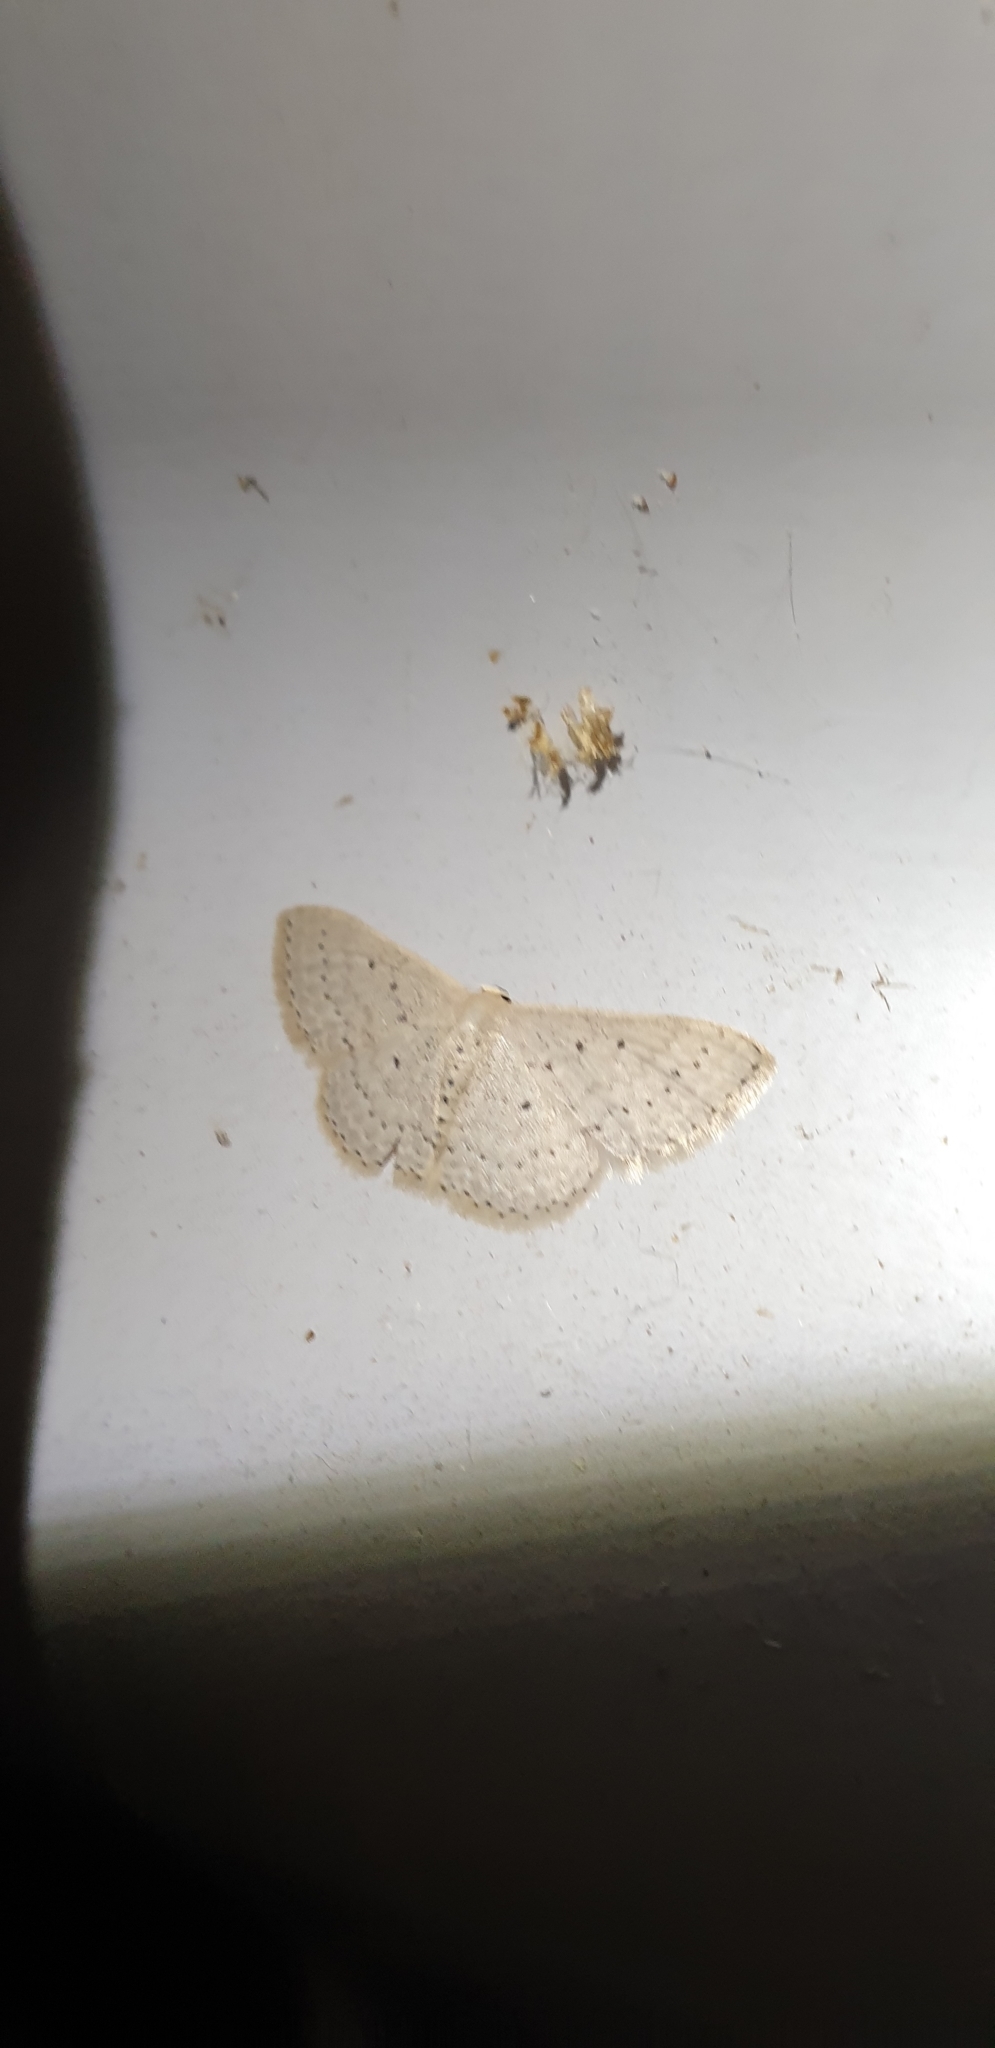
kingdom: Animalia
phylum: Arthropoda
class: Insecta
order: Lepidoptera
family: Geometridae
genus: Scopula
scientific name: Scopula sublinearia
